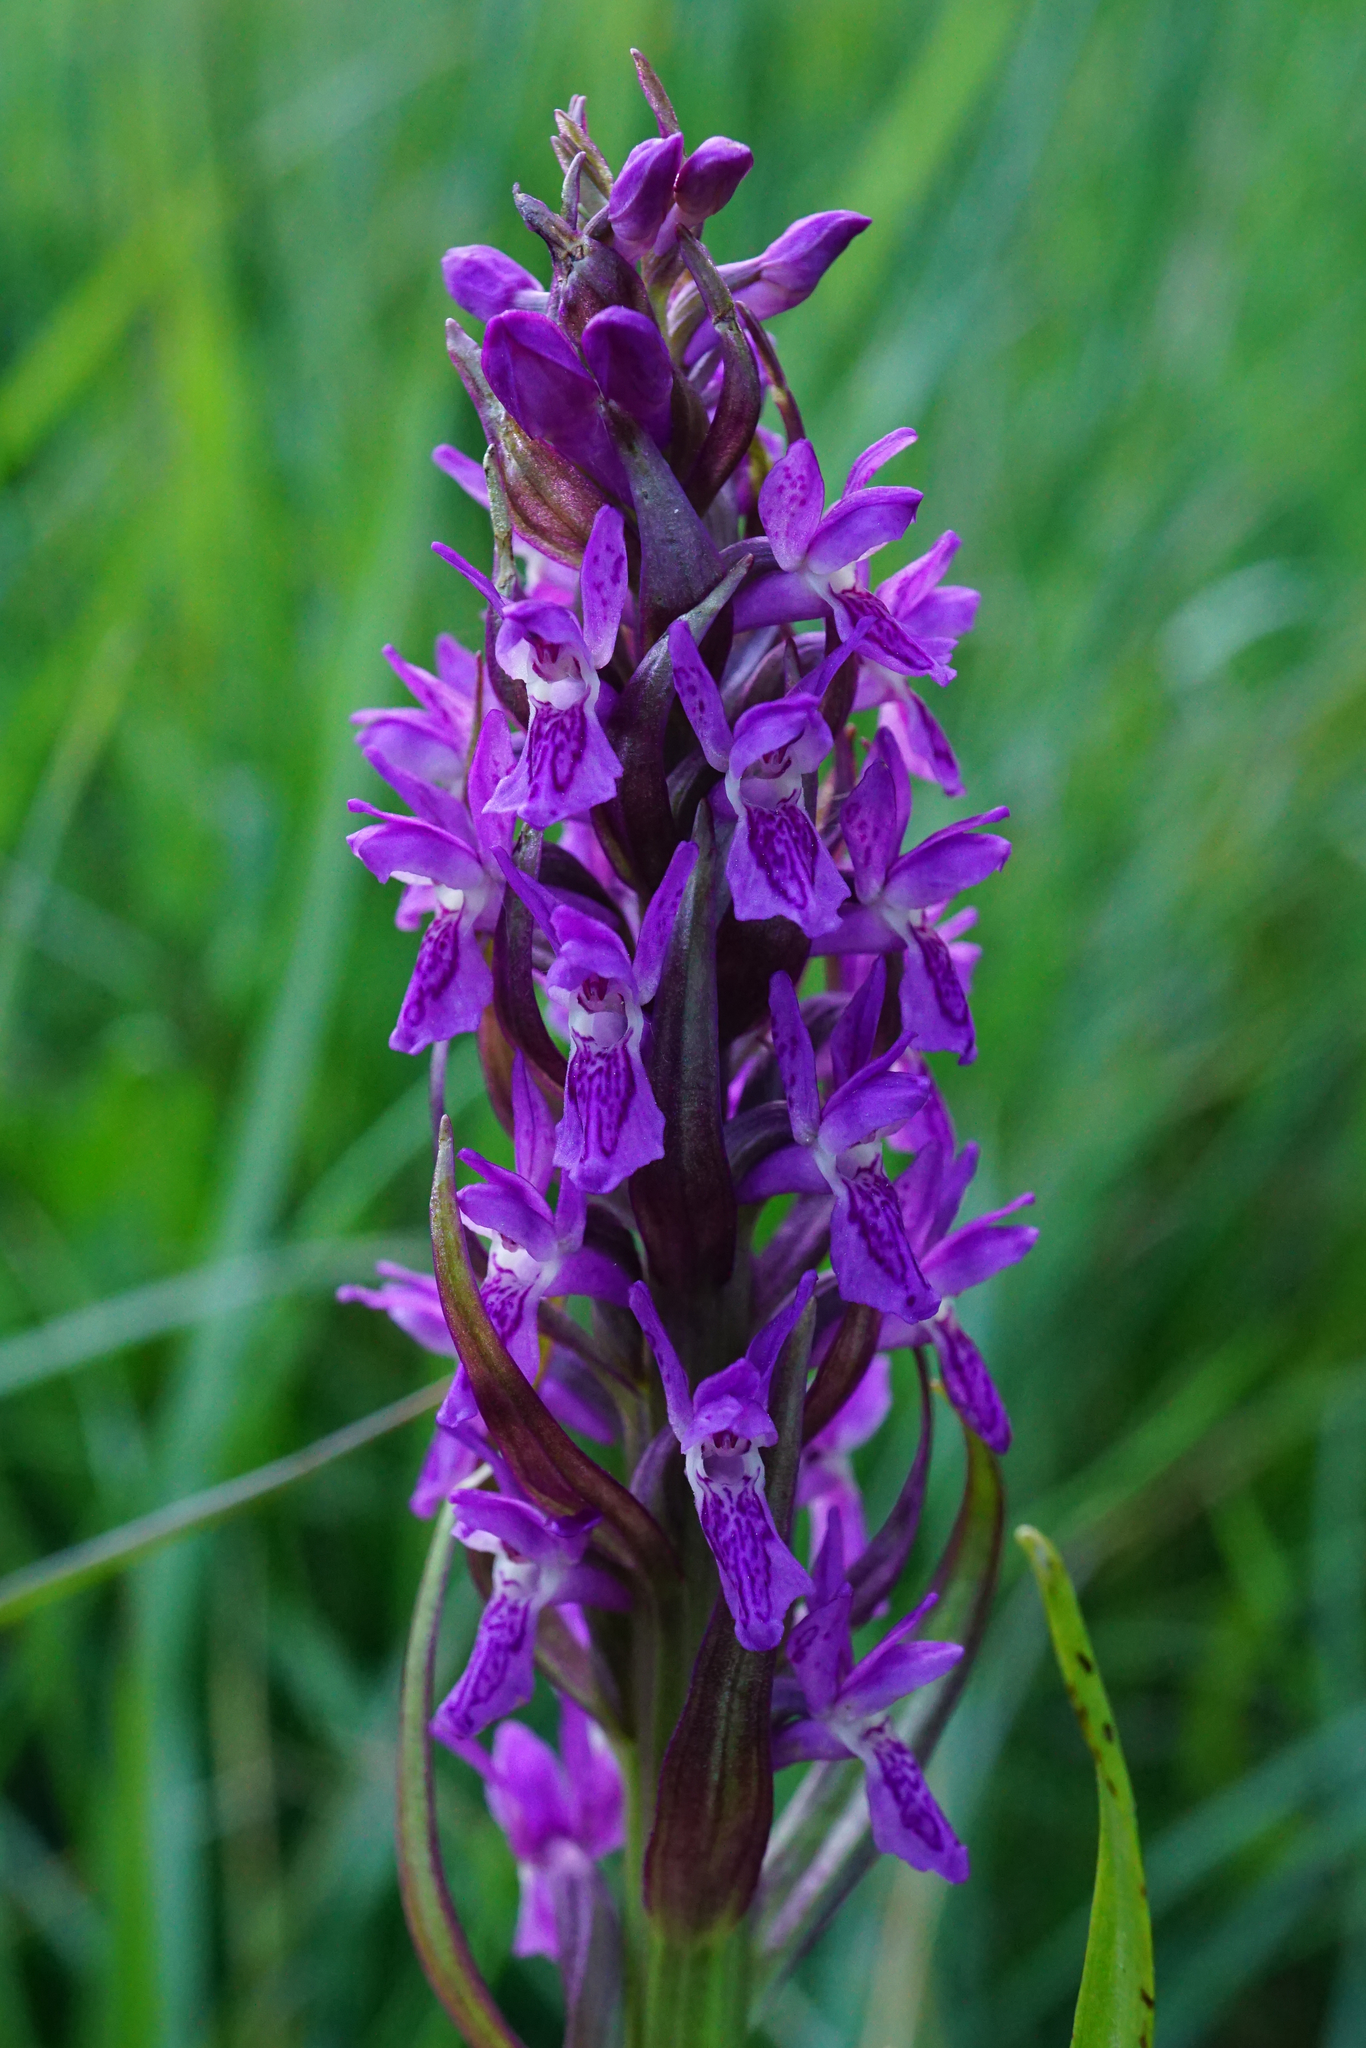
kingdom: Plantae
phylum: Tracheophyta
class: Liliopsida
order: Asparagales
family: Orchidaceae
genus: Dactylorhiza
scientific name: Dactylorhiza incarnata
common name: Early marsh-orchid
